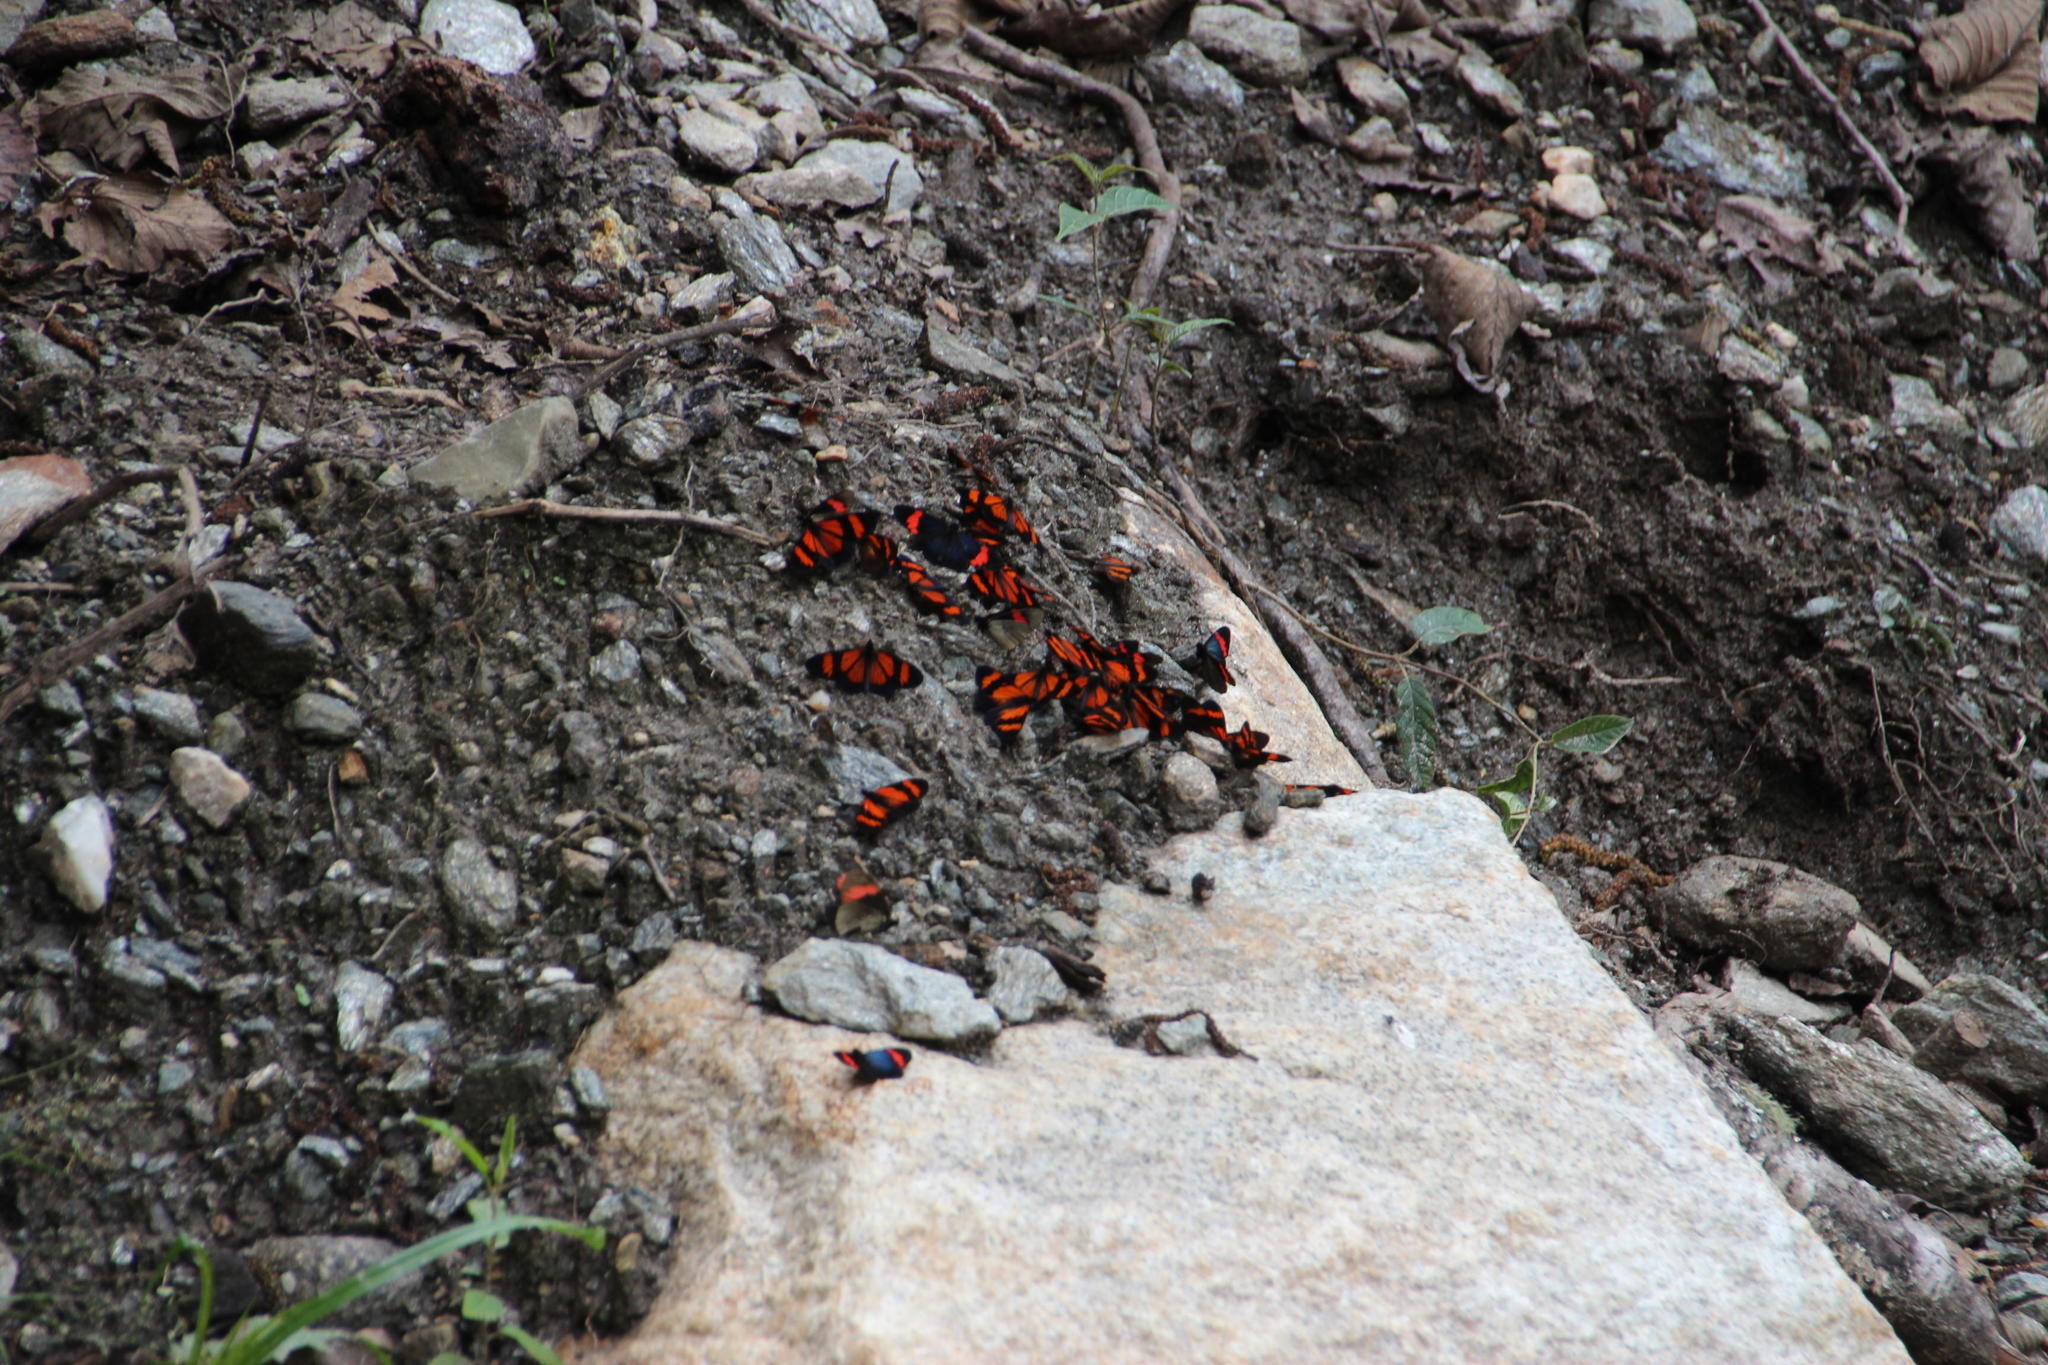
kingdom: Animalia
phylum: Arthropoda
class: Insecta
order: Lepidoptera
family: Nymphalidae
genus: Actinote
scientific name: Actinote negra
